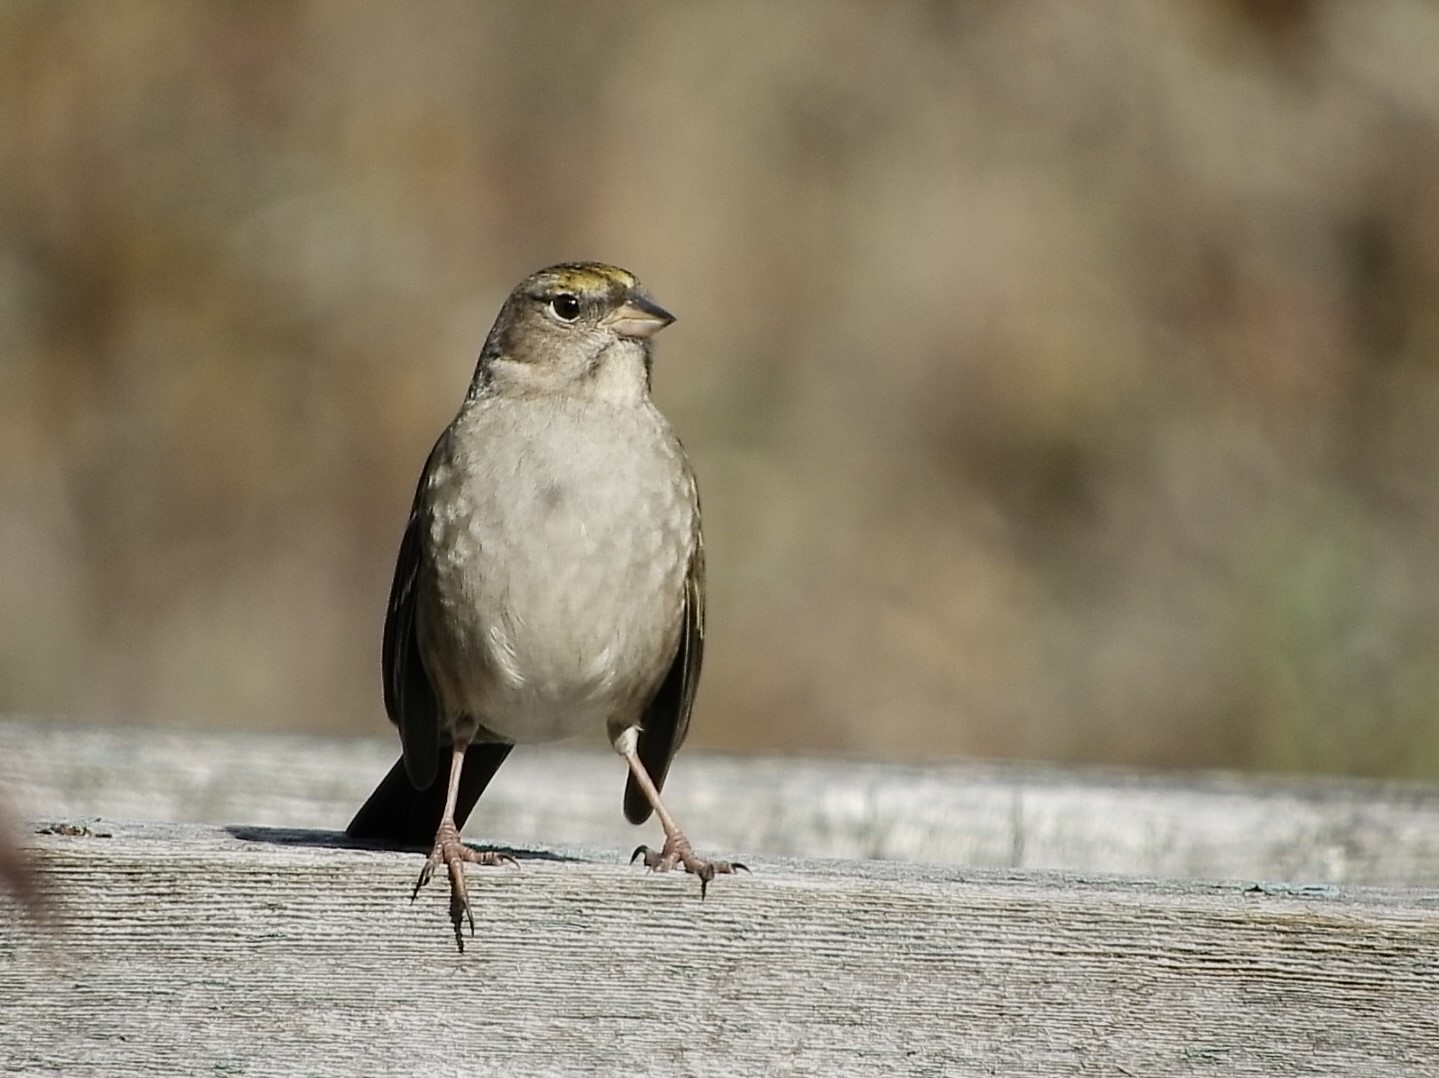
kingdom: Animalia
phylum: Chordata
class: Aves
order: Passeriformes
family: Passerellidae
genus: Zonotrichia
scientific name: Zonotrichia atricapilla
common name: Golden-crowned sparrow
